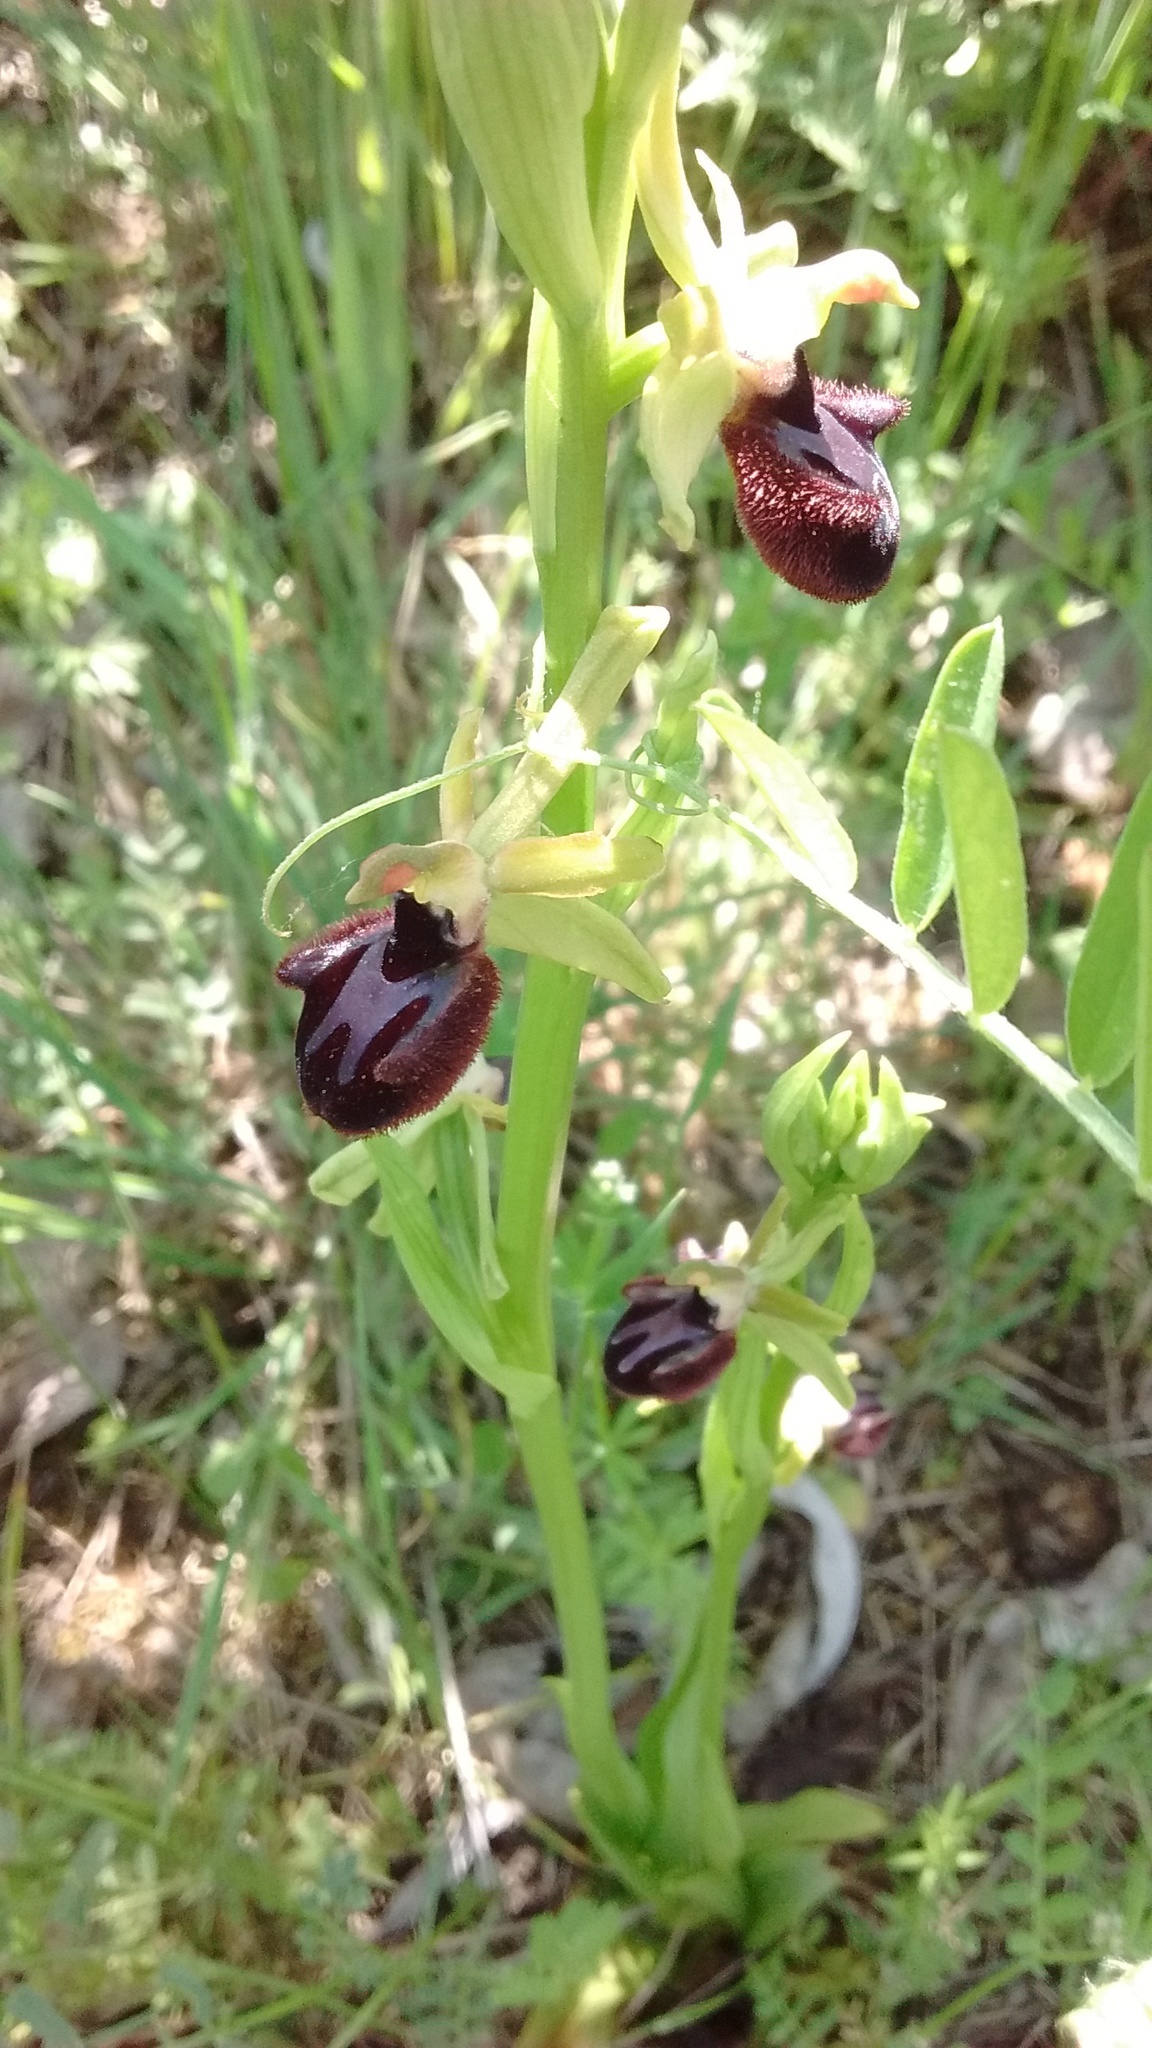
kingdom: Plantae
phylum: Tracheophyta
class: Liliopsida
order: Asparagales
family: Orchidaceae
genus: Ophrys
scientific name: Ophrys sphegodes
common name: Early spider-orchid
